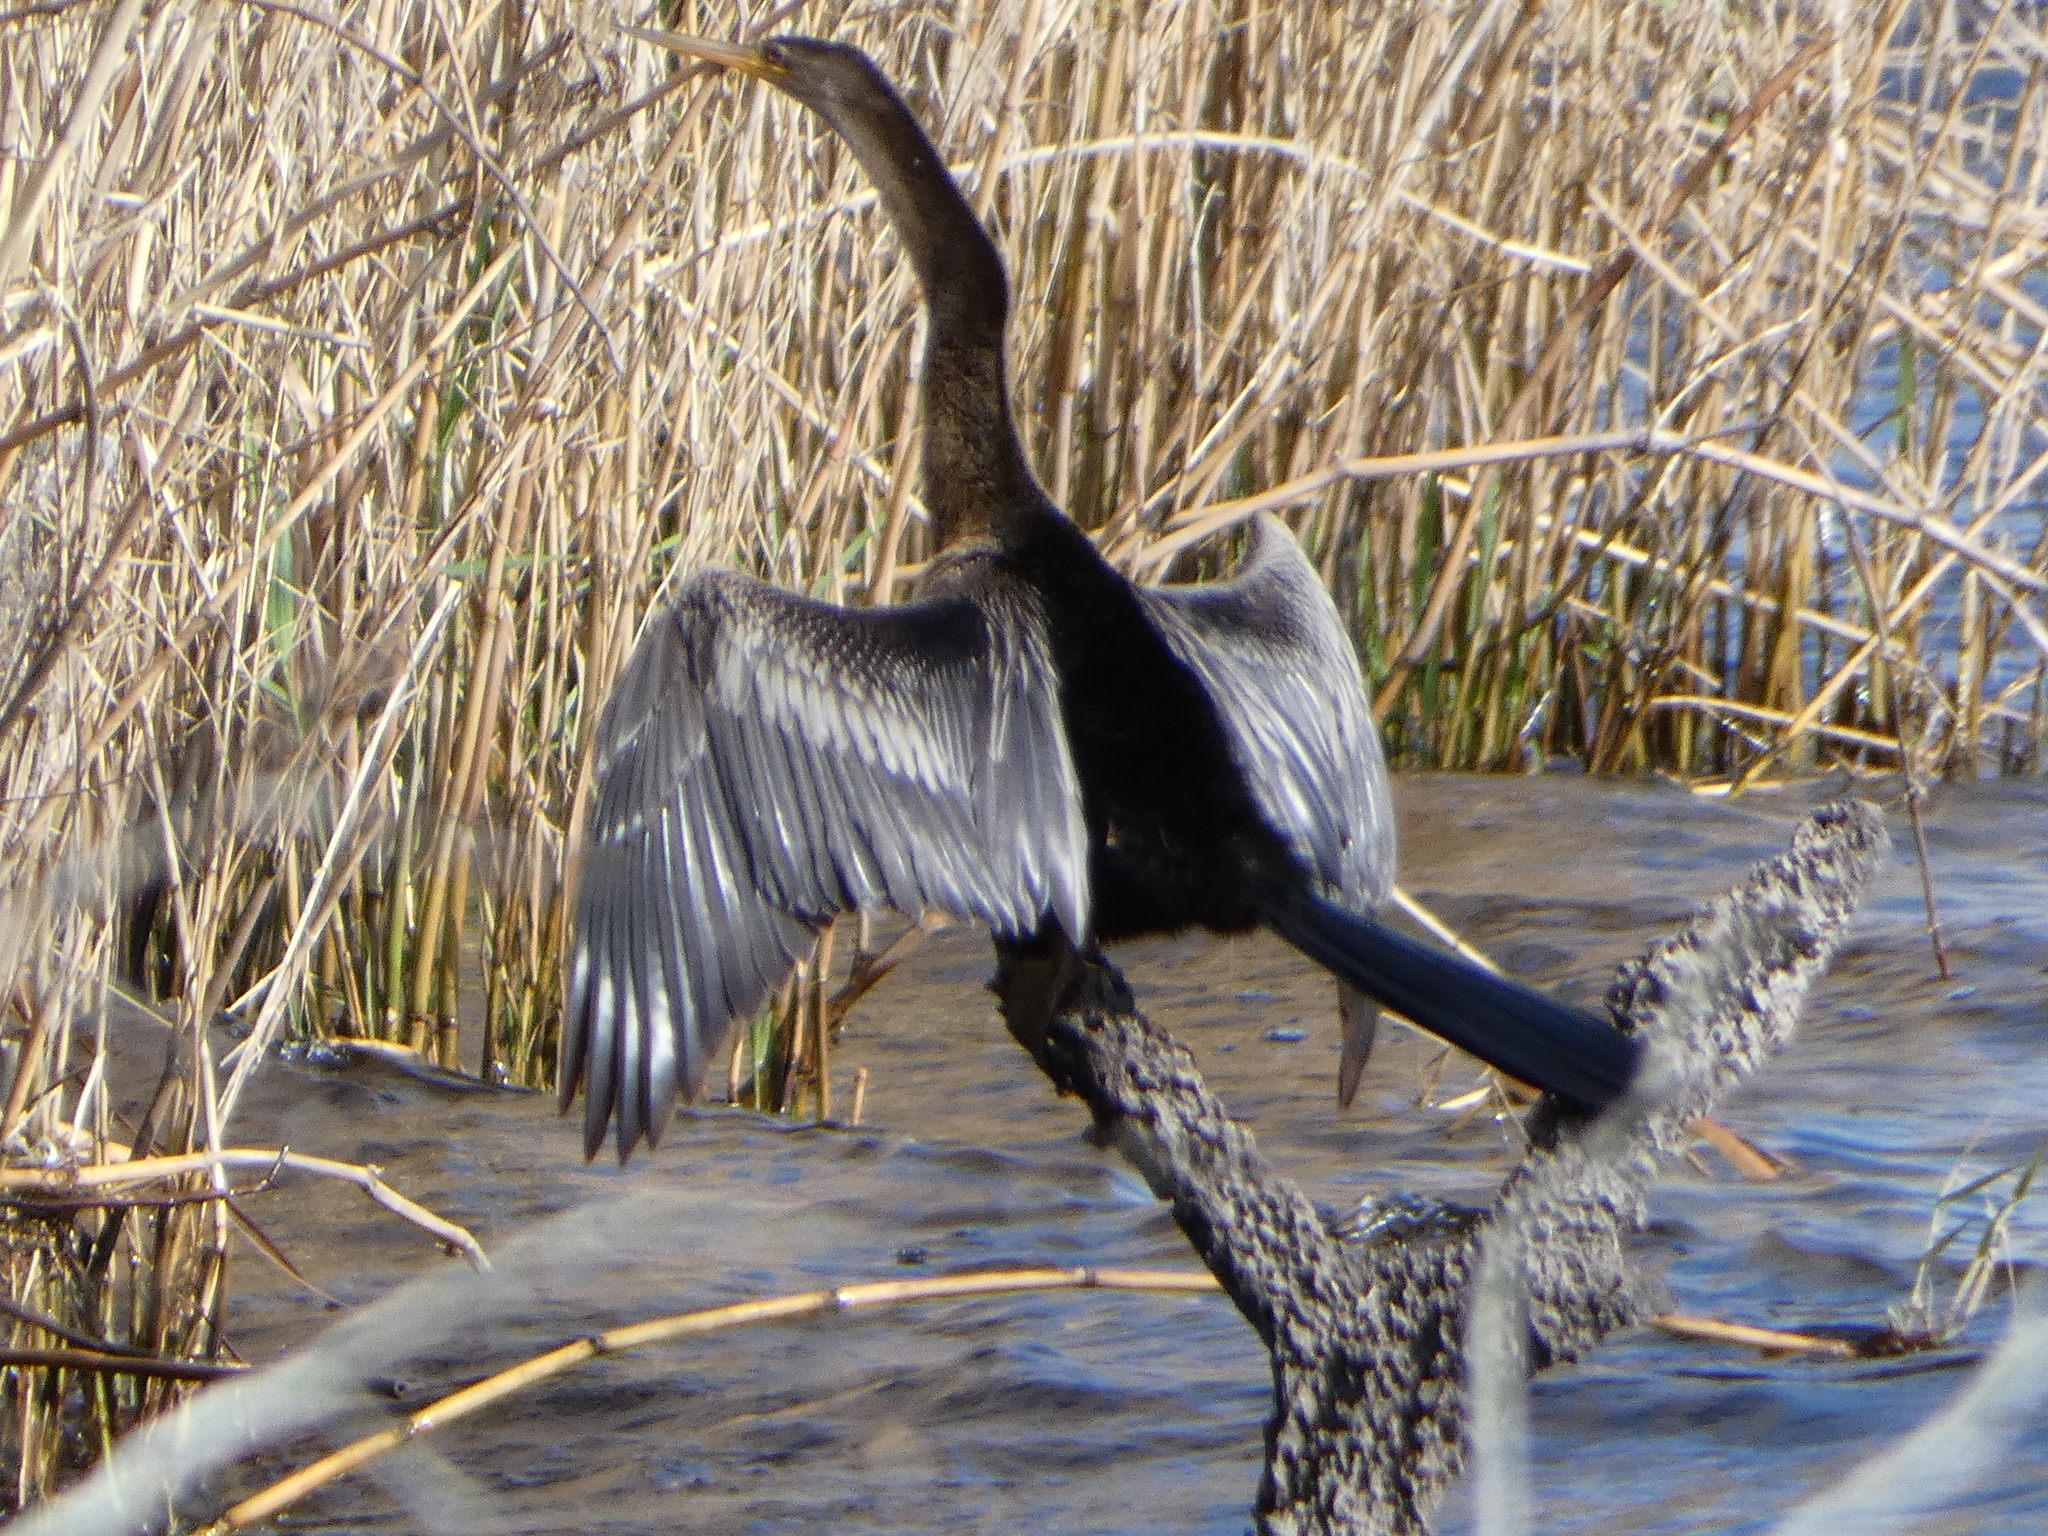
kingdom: Animalia
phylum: Chordata
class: Aves
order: Suliformes
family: Anhingidae
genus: Anhinga
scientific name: Anhinga anhinga
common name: Anhinga
